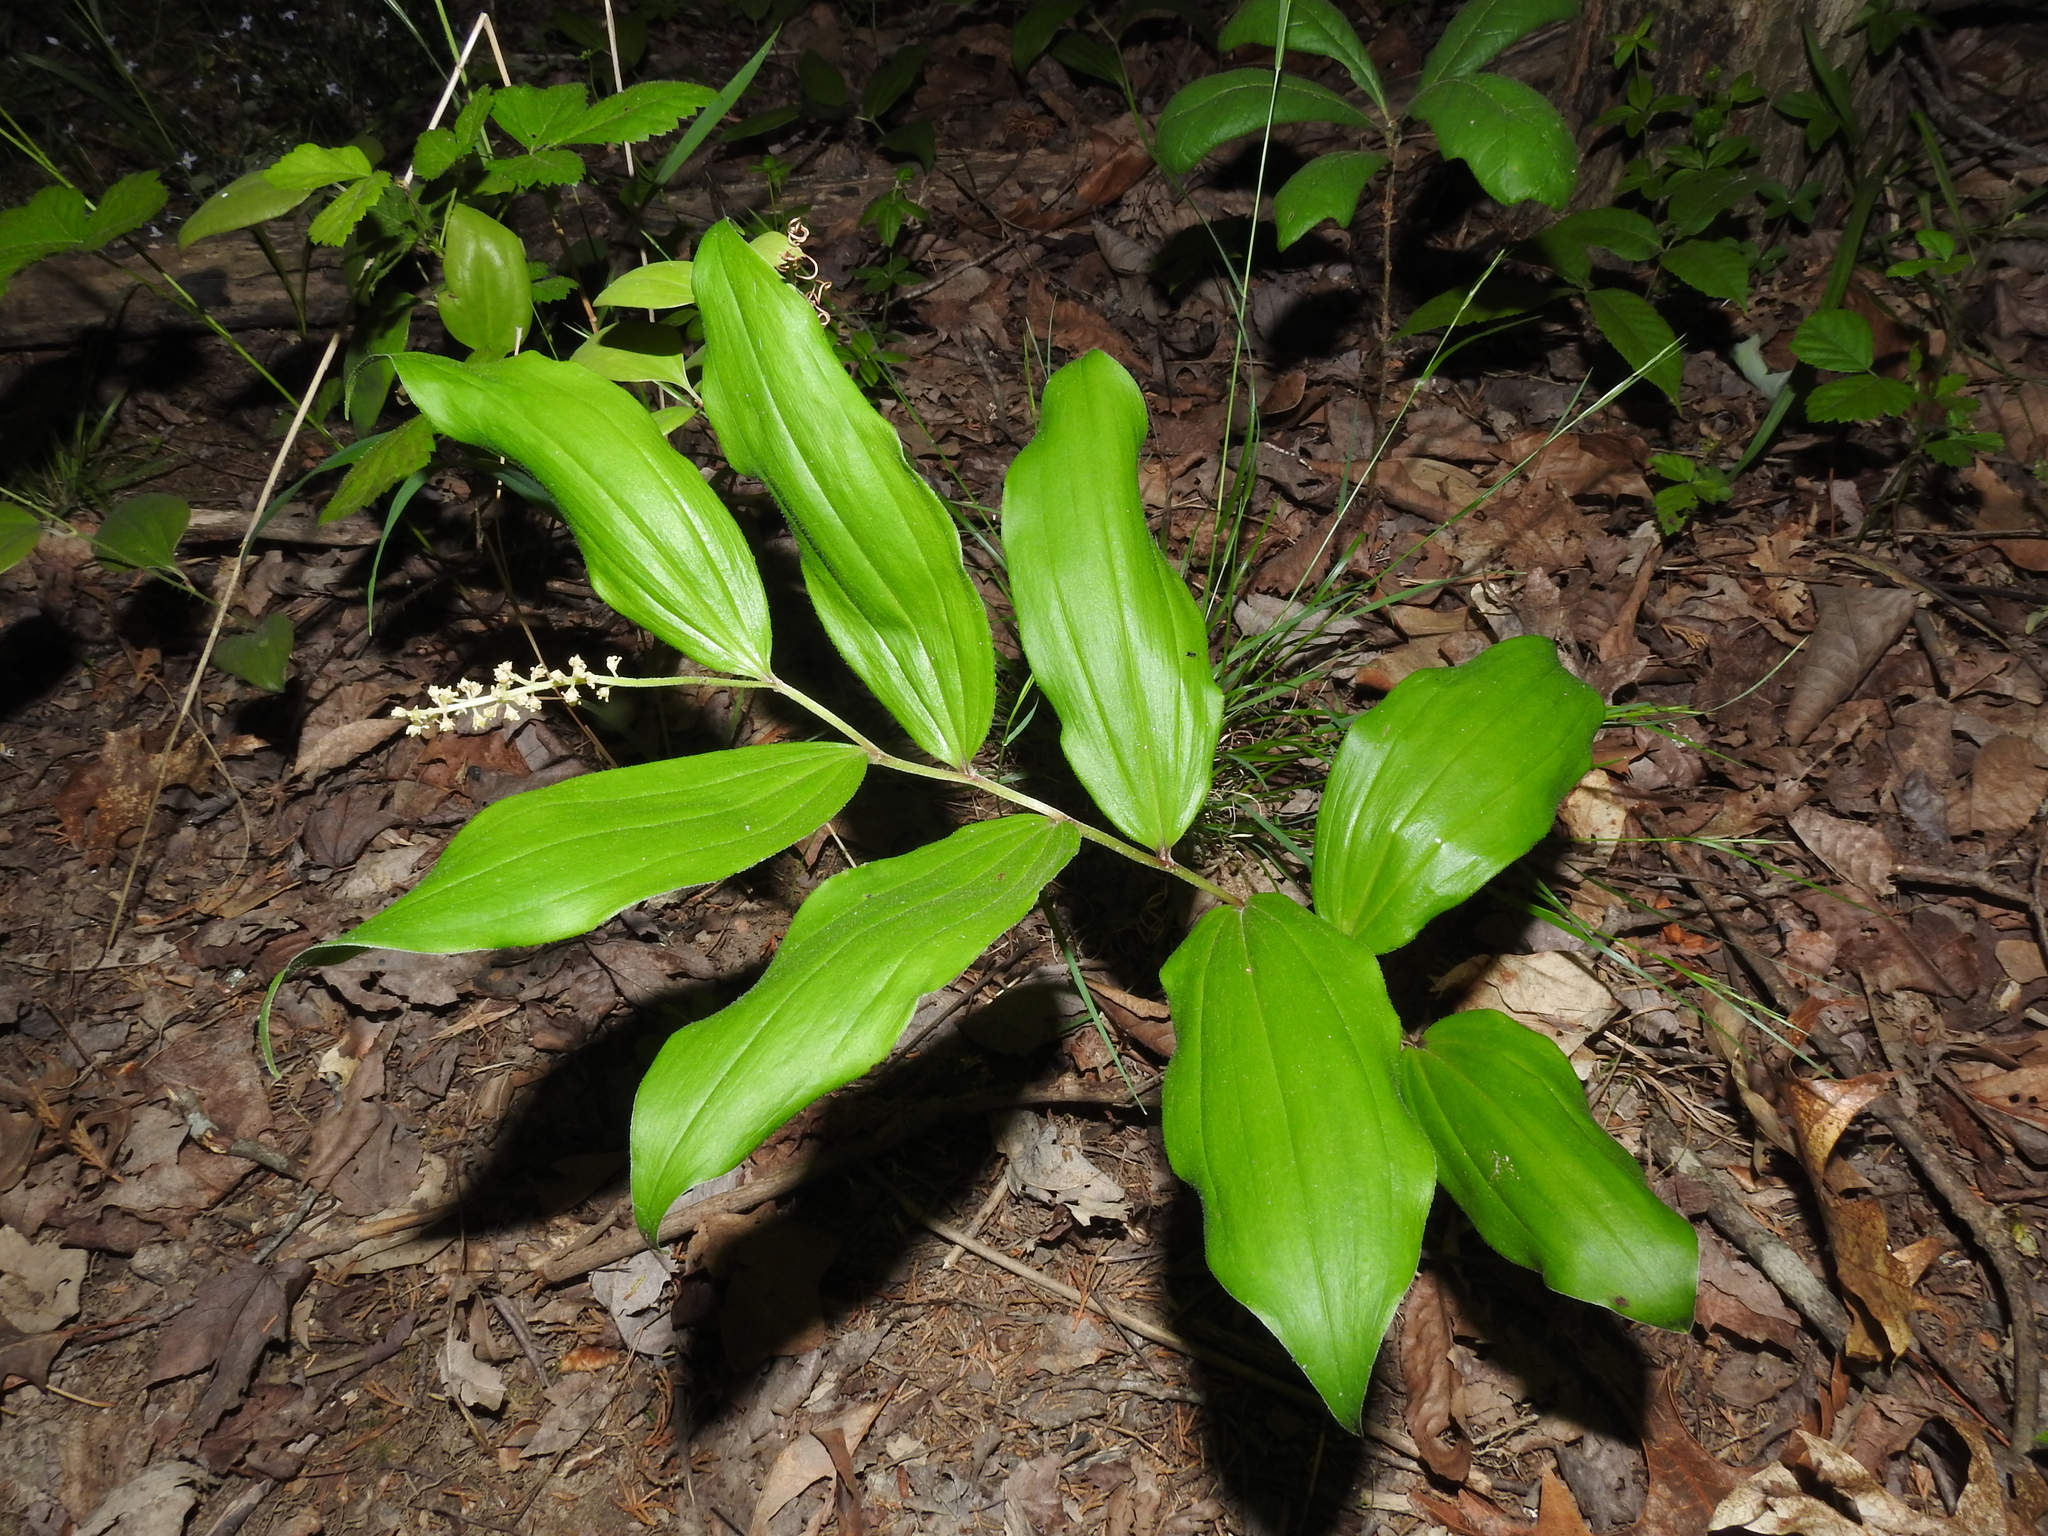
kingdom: Plantae
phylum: Tracheophyta
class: Liliopsida
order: Asparagales
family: Asparagaceae
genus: Maianthemum
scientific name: Maianthemum racemosum
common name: False spikenard
